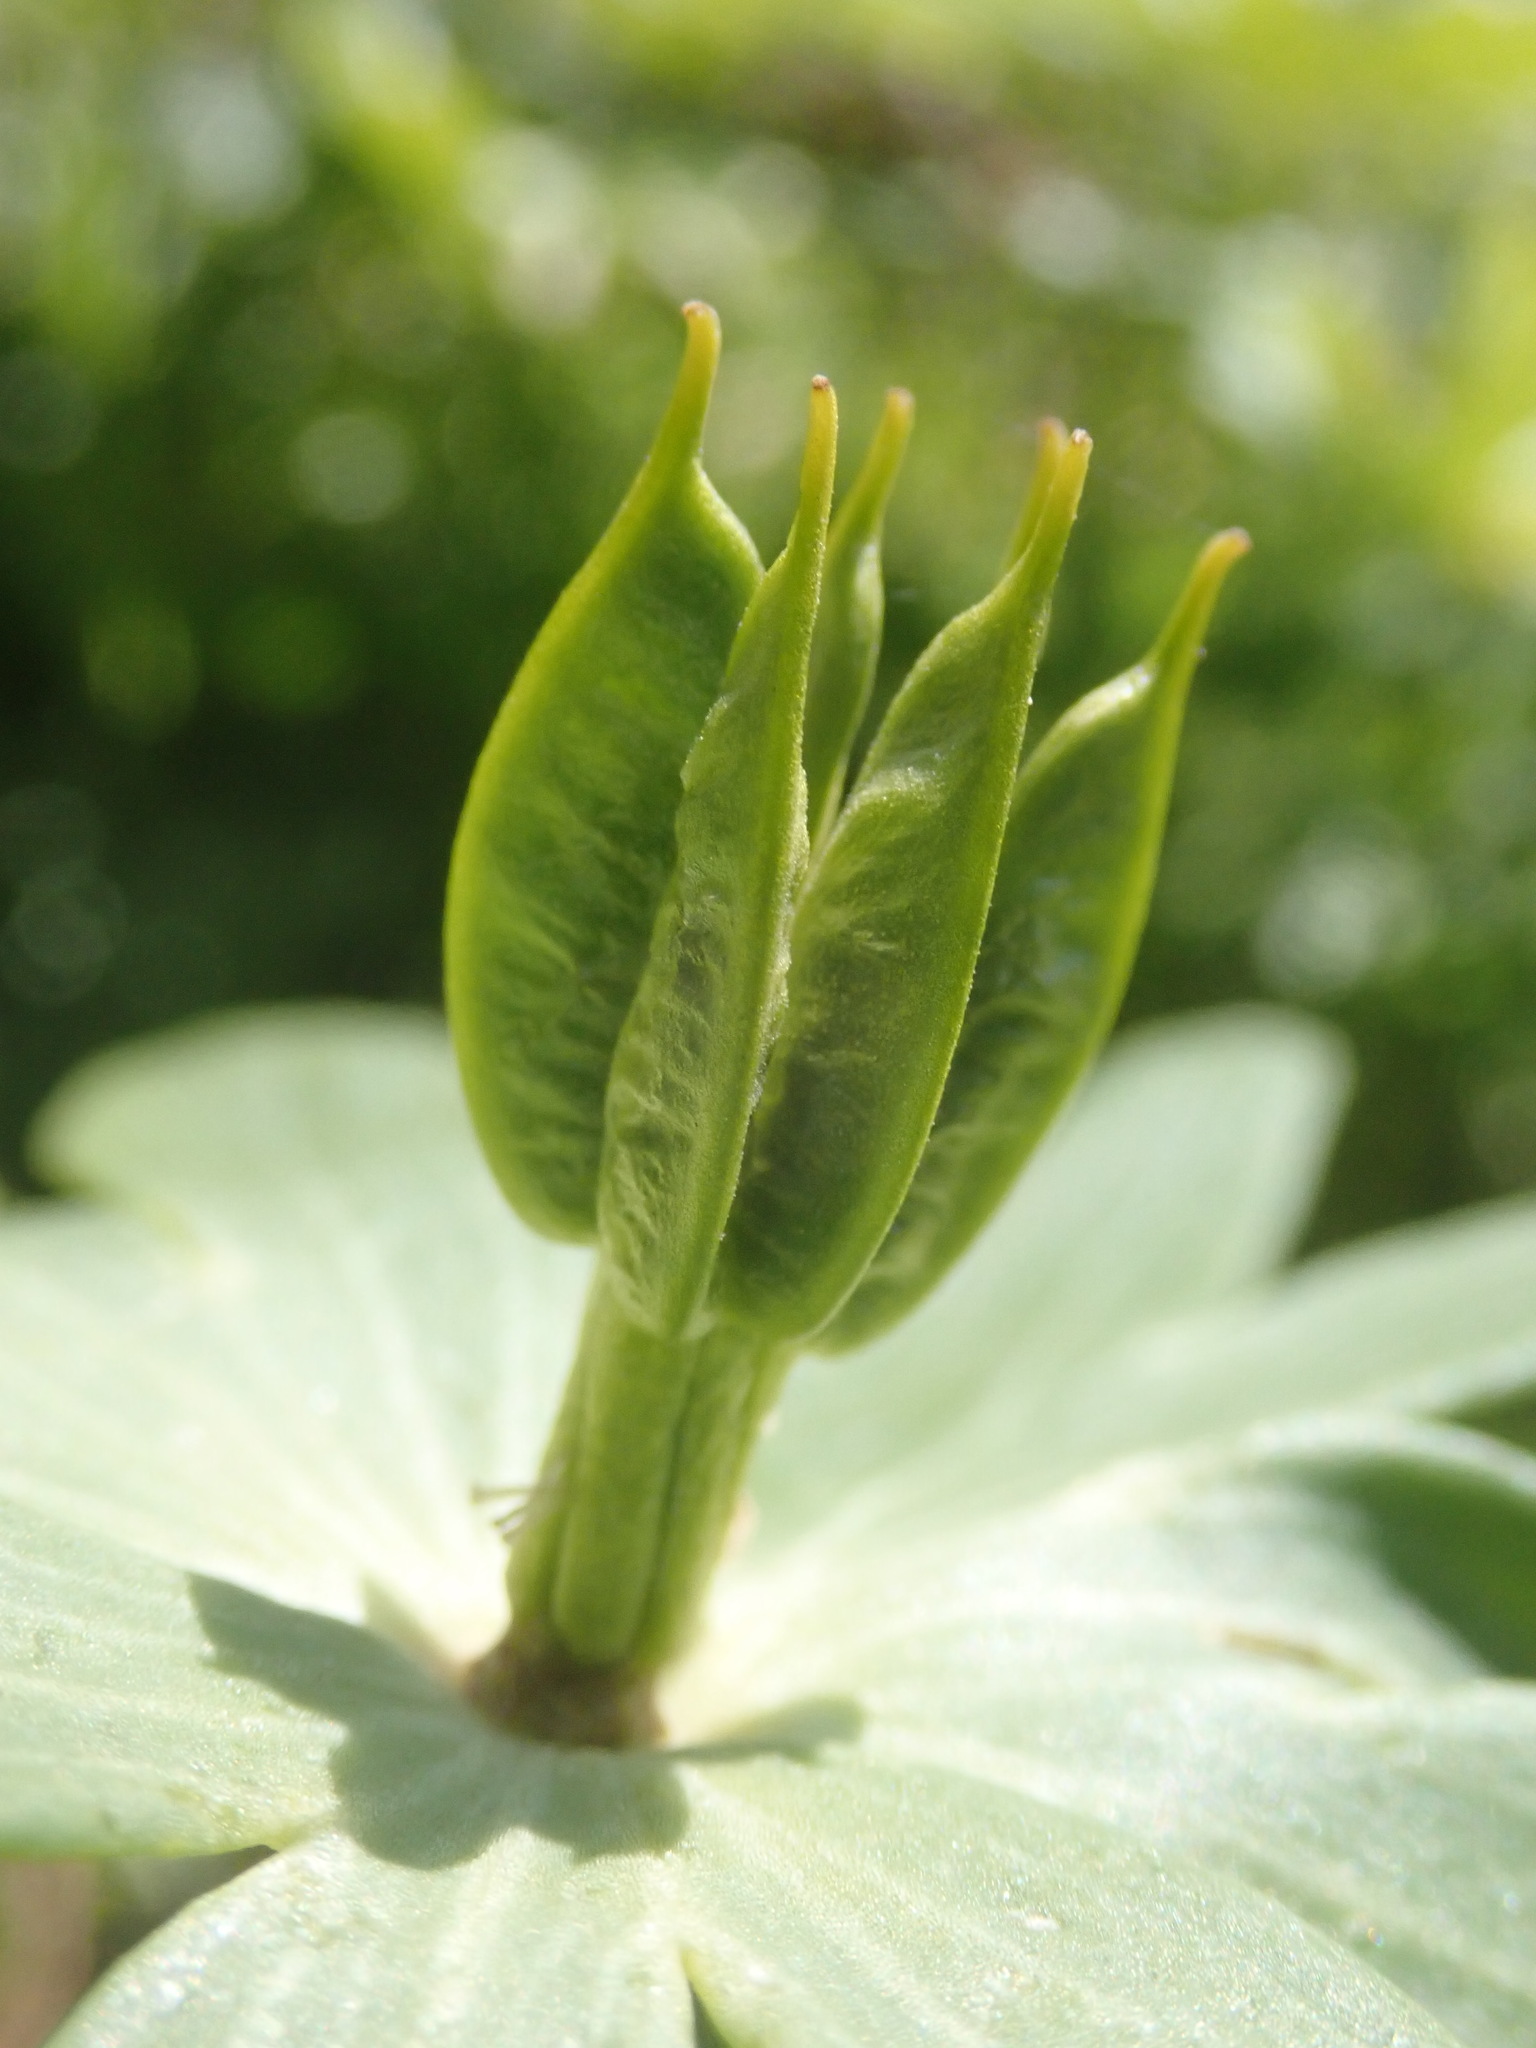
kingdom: Plantae
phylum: Tracheophyta
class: Magnoliopsida
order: Ranunculales
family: Ranunculaceae
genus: Eranthis
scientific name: Eranthis hyemalis
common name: Winter aconite
